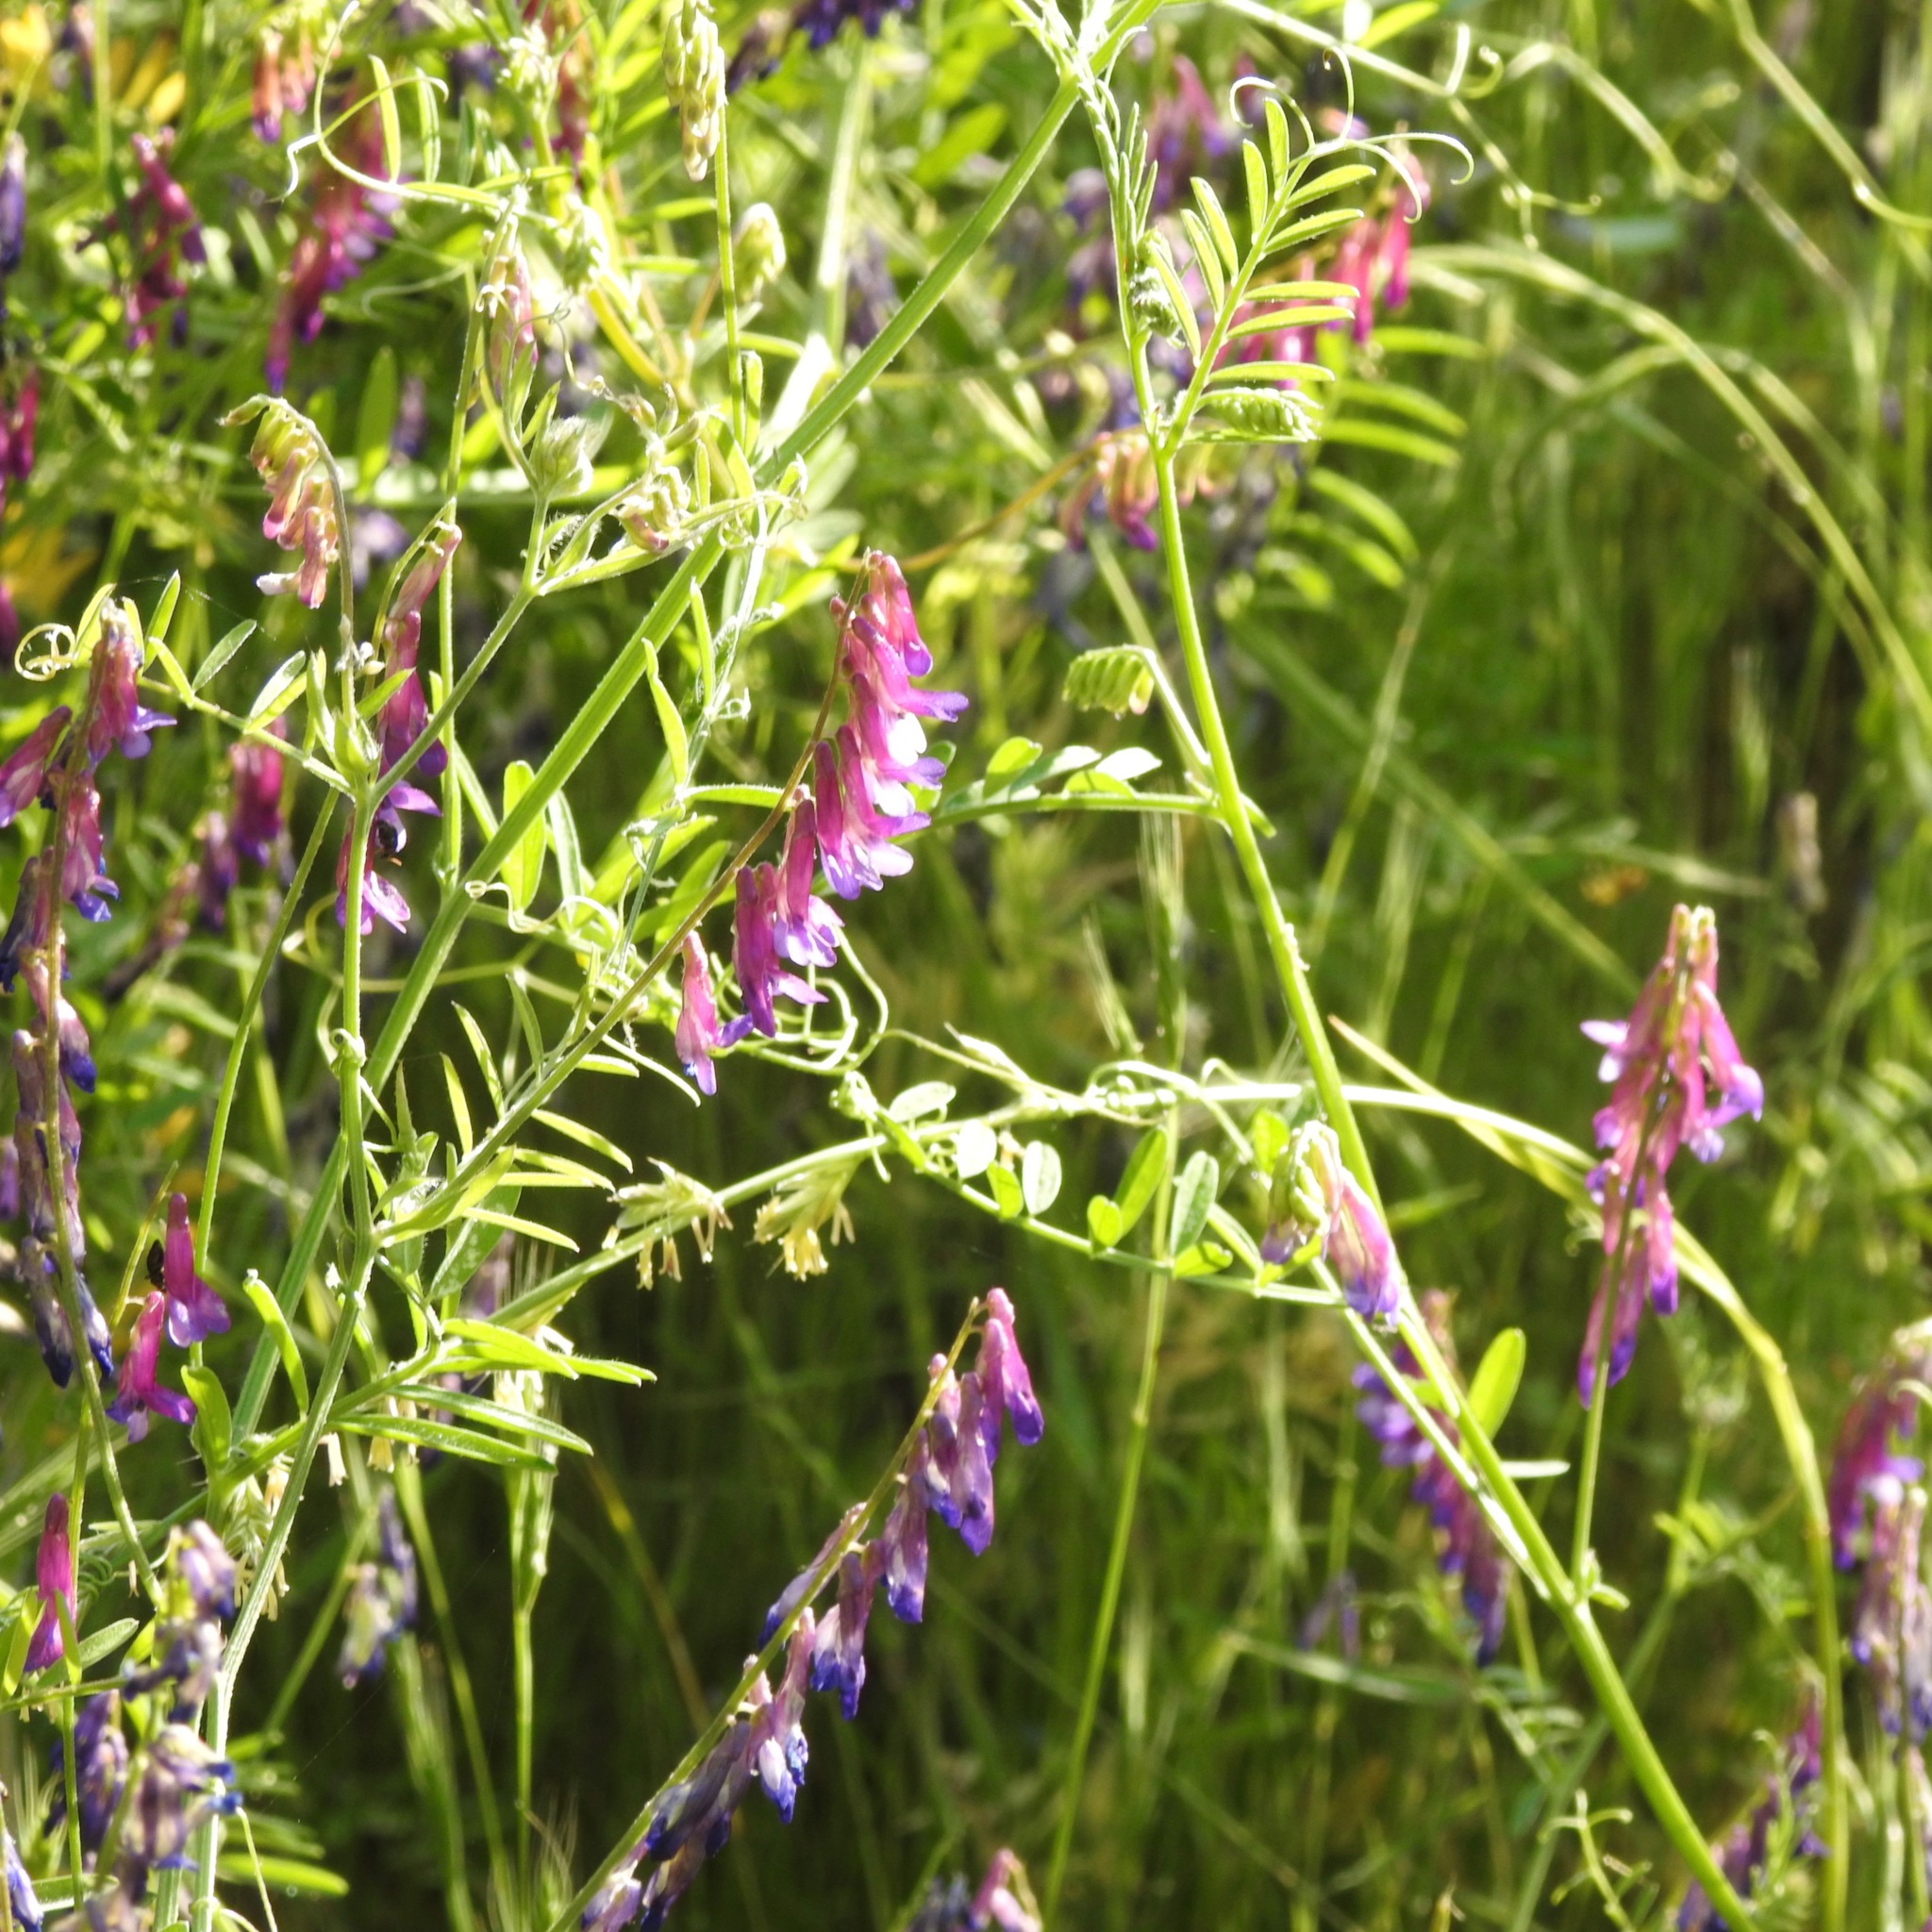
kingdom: Plantae
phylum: Tracheophyta
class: Magnoliopsida
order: Fabales
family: Fabaceae
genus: Vicia
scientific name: Vicia villosa
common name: Fodder vetch
